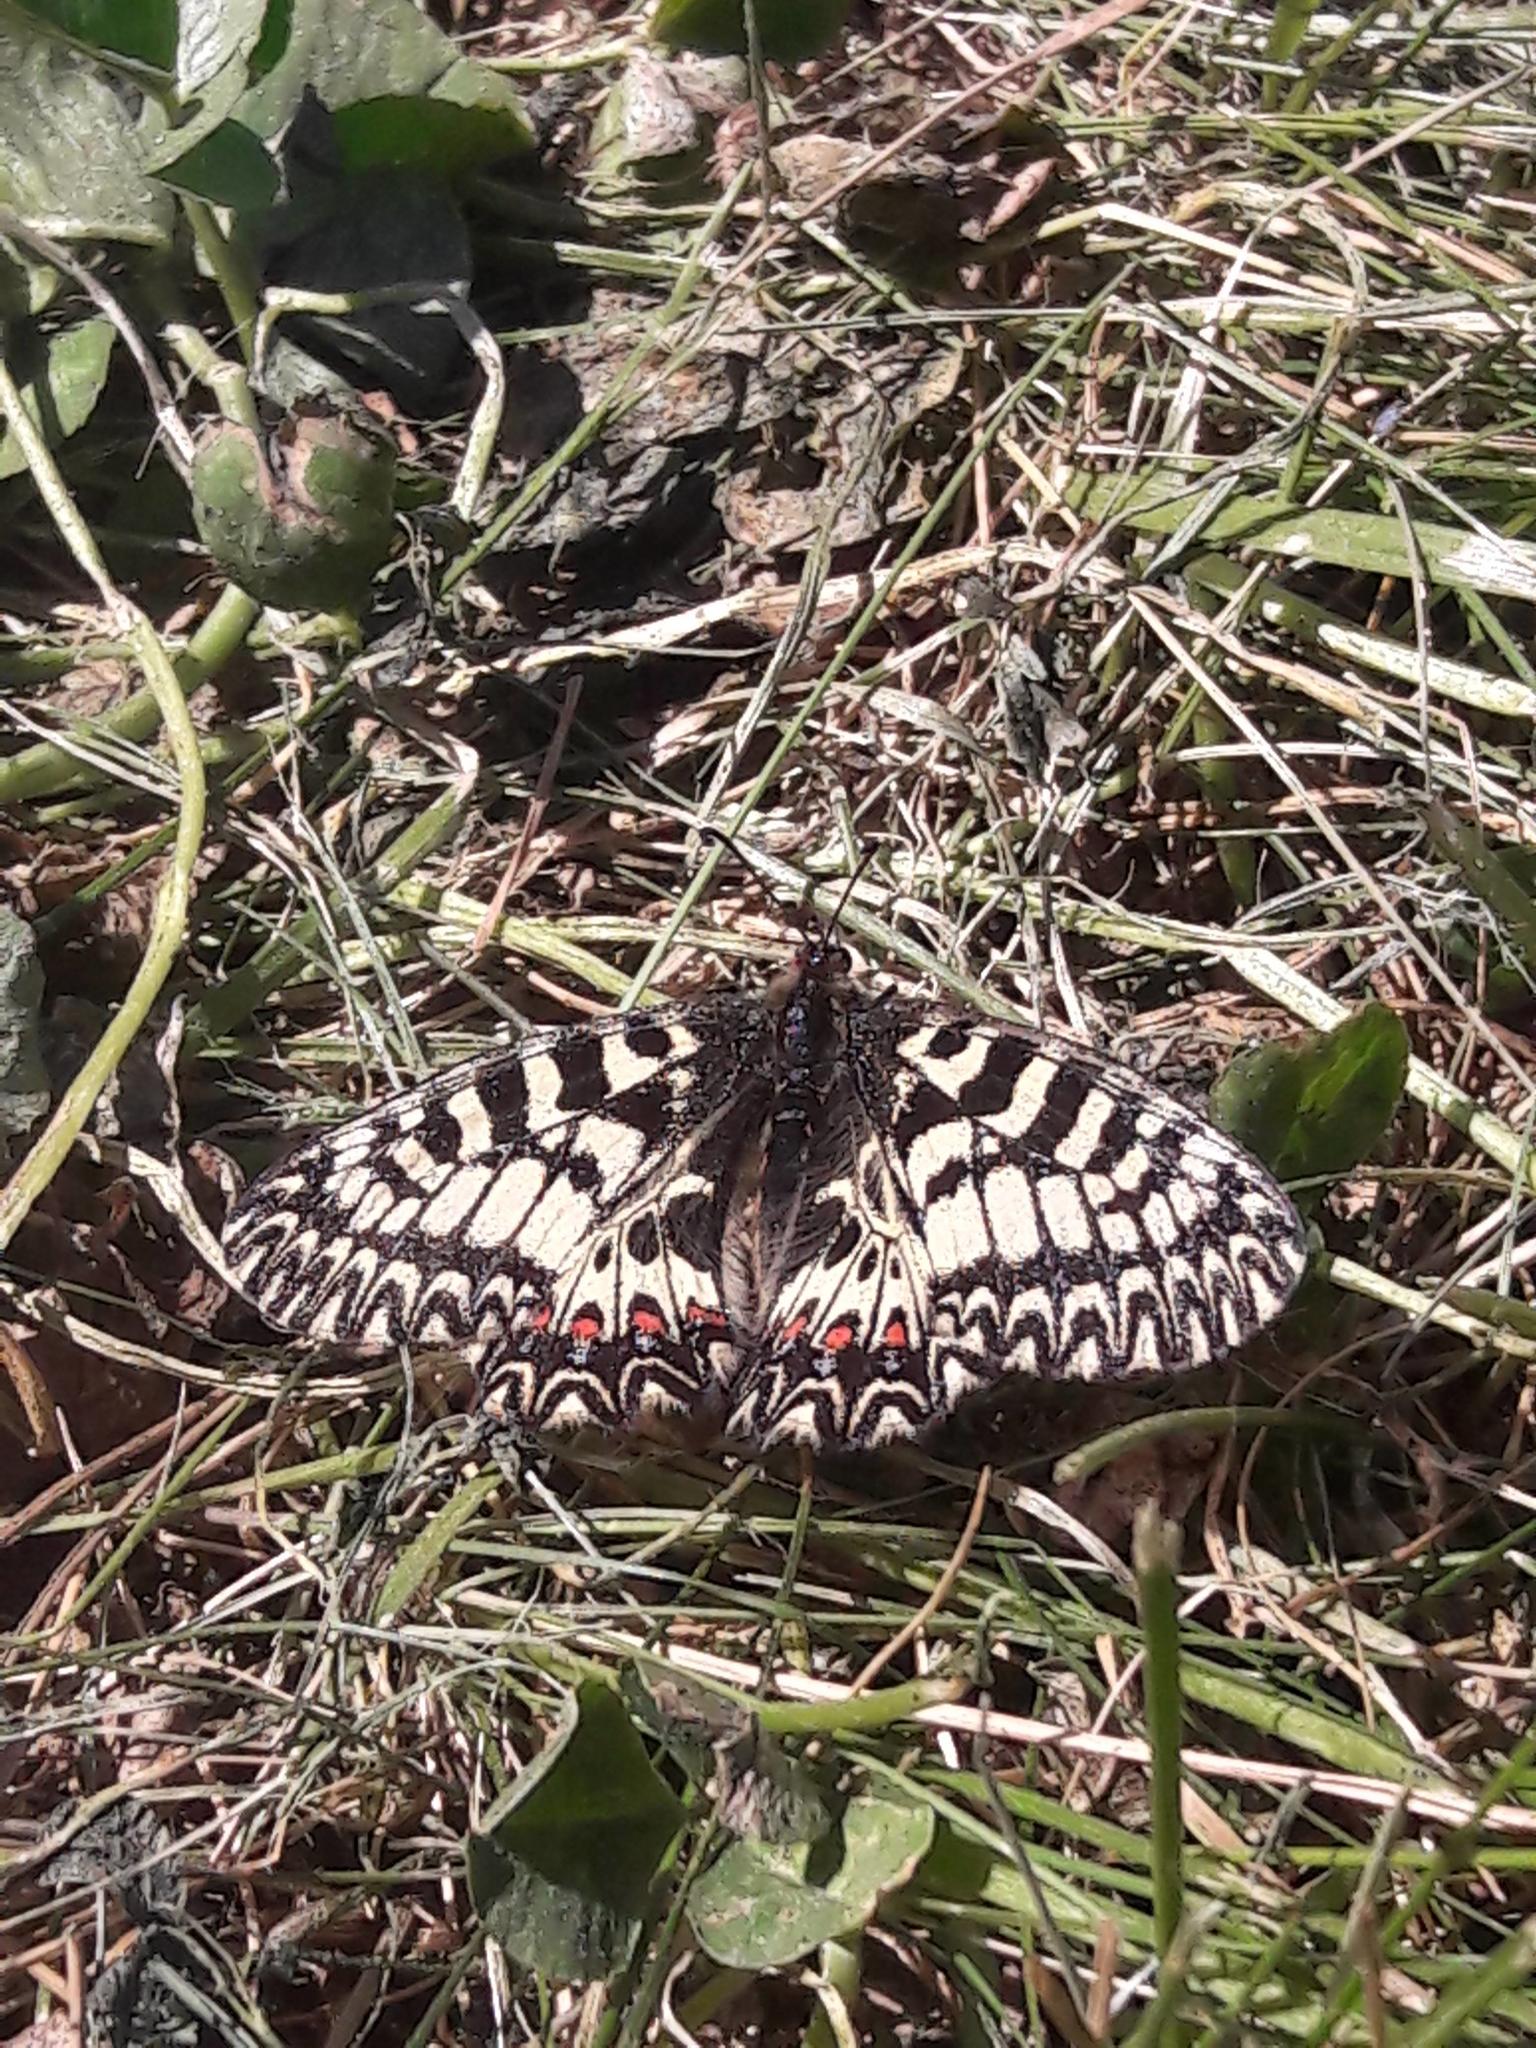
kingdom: Animalia
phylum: Arthropoda
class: Insecta
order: Lepidoptera
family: Papilionidae
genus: Zerynthia
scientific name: Zerynthia polyxena
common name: Southern festoon
